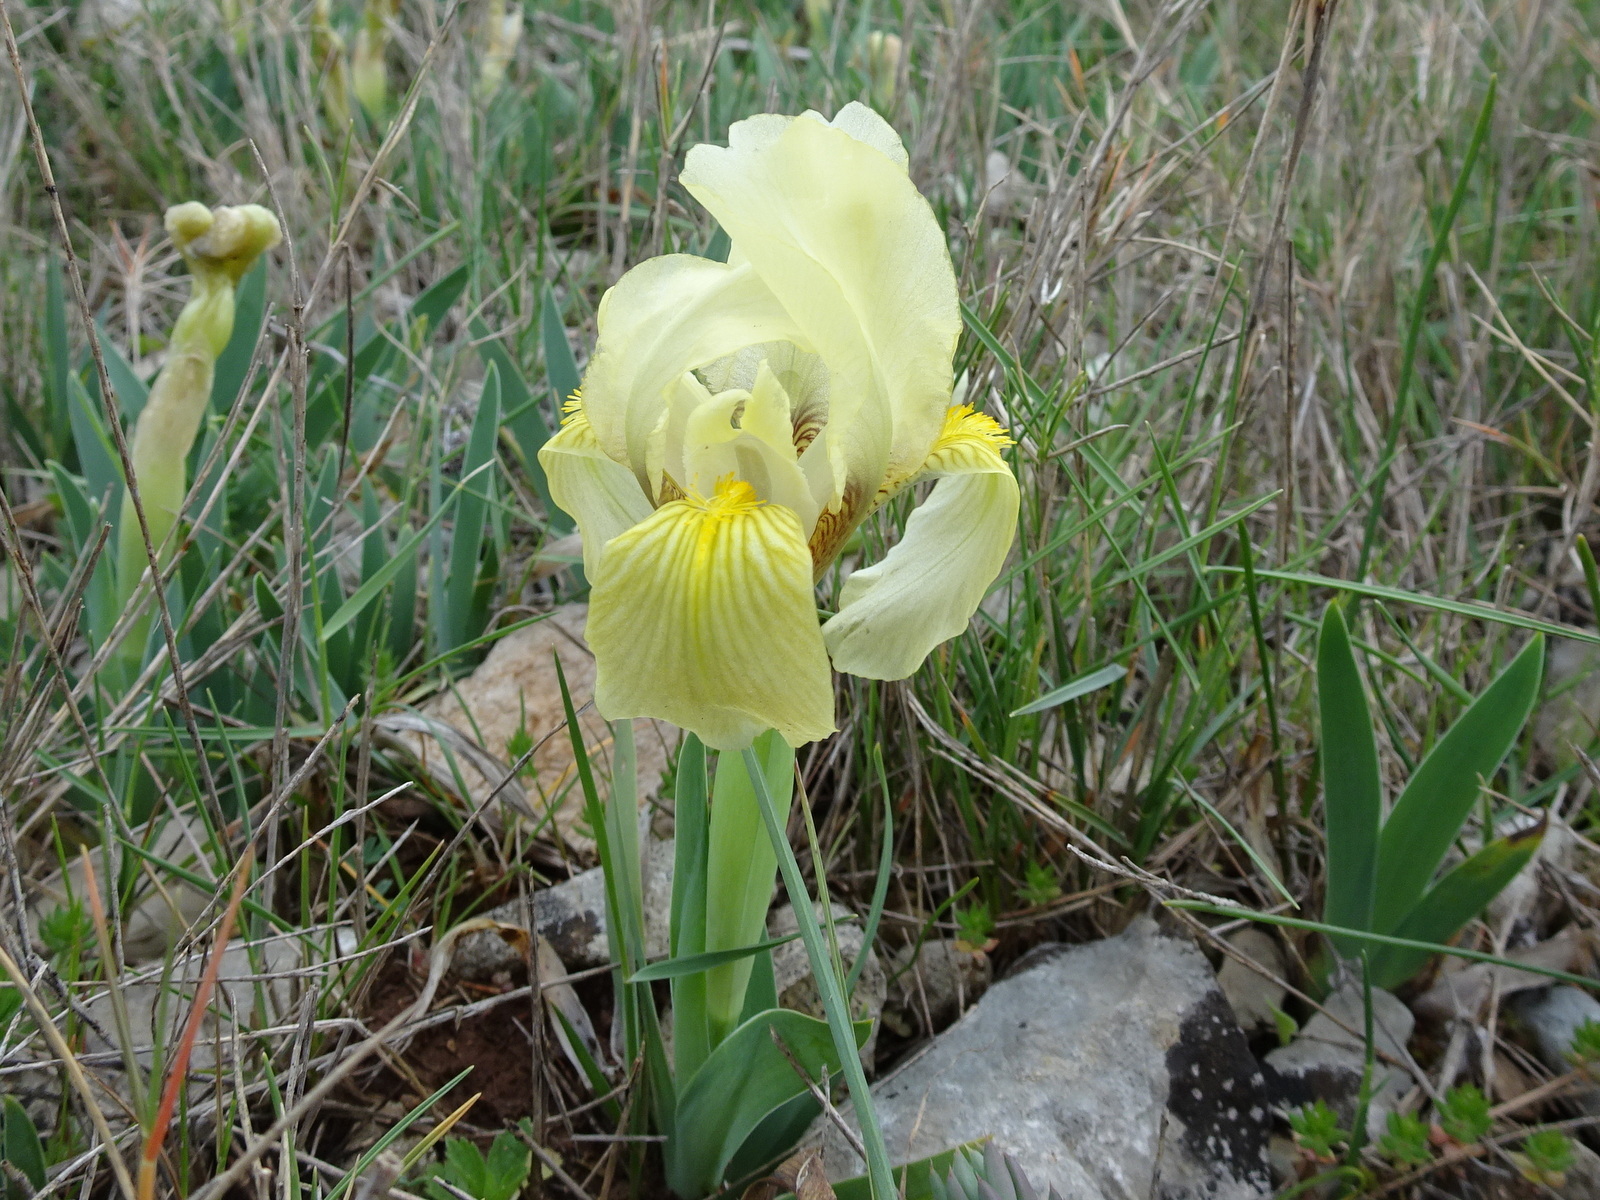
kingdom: Plantae
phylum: Tracheophyta
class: Liliopsida
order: Asparagales
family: Iridaceae
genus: Iris
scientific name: Iris lutescens
